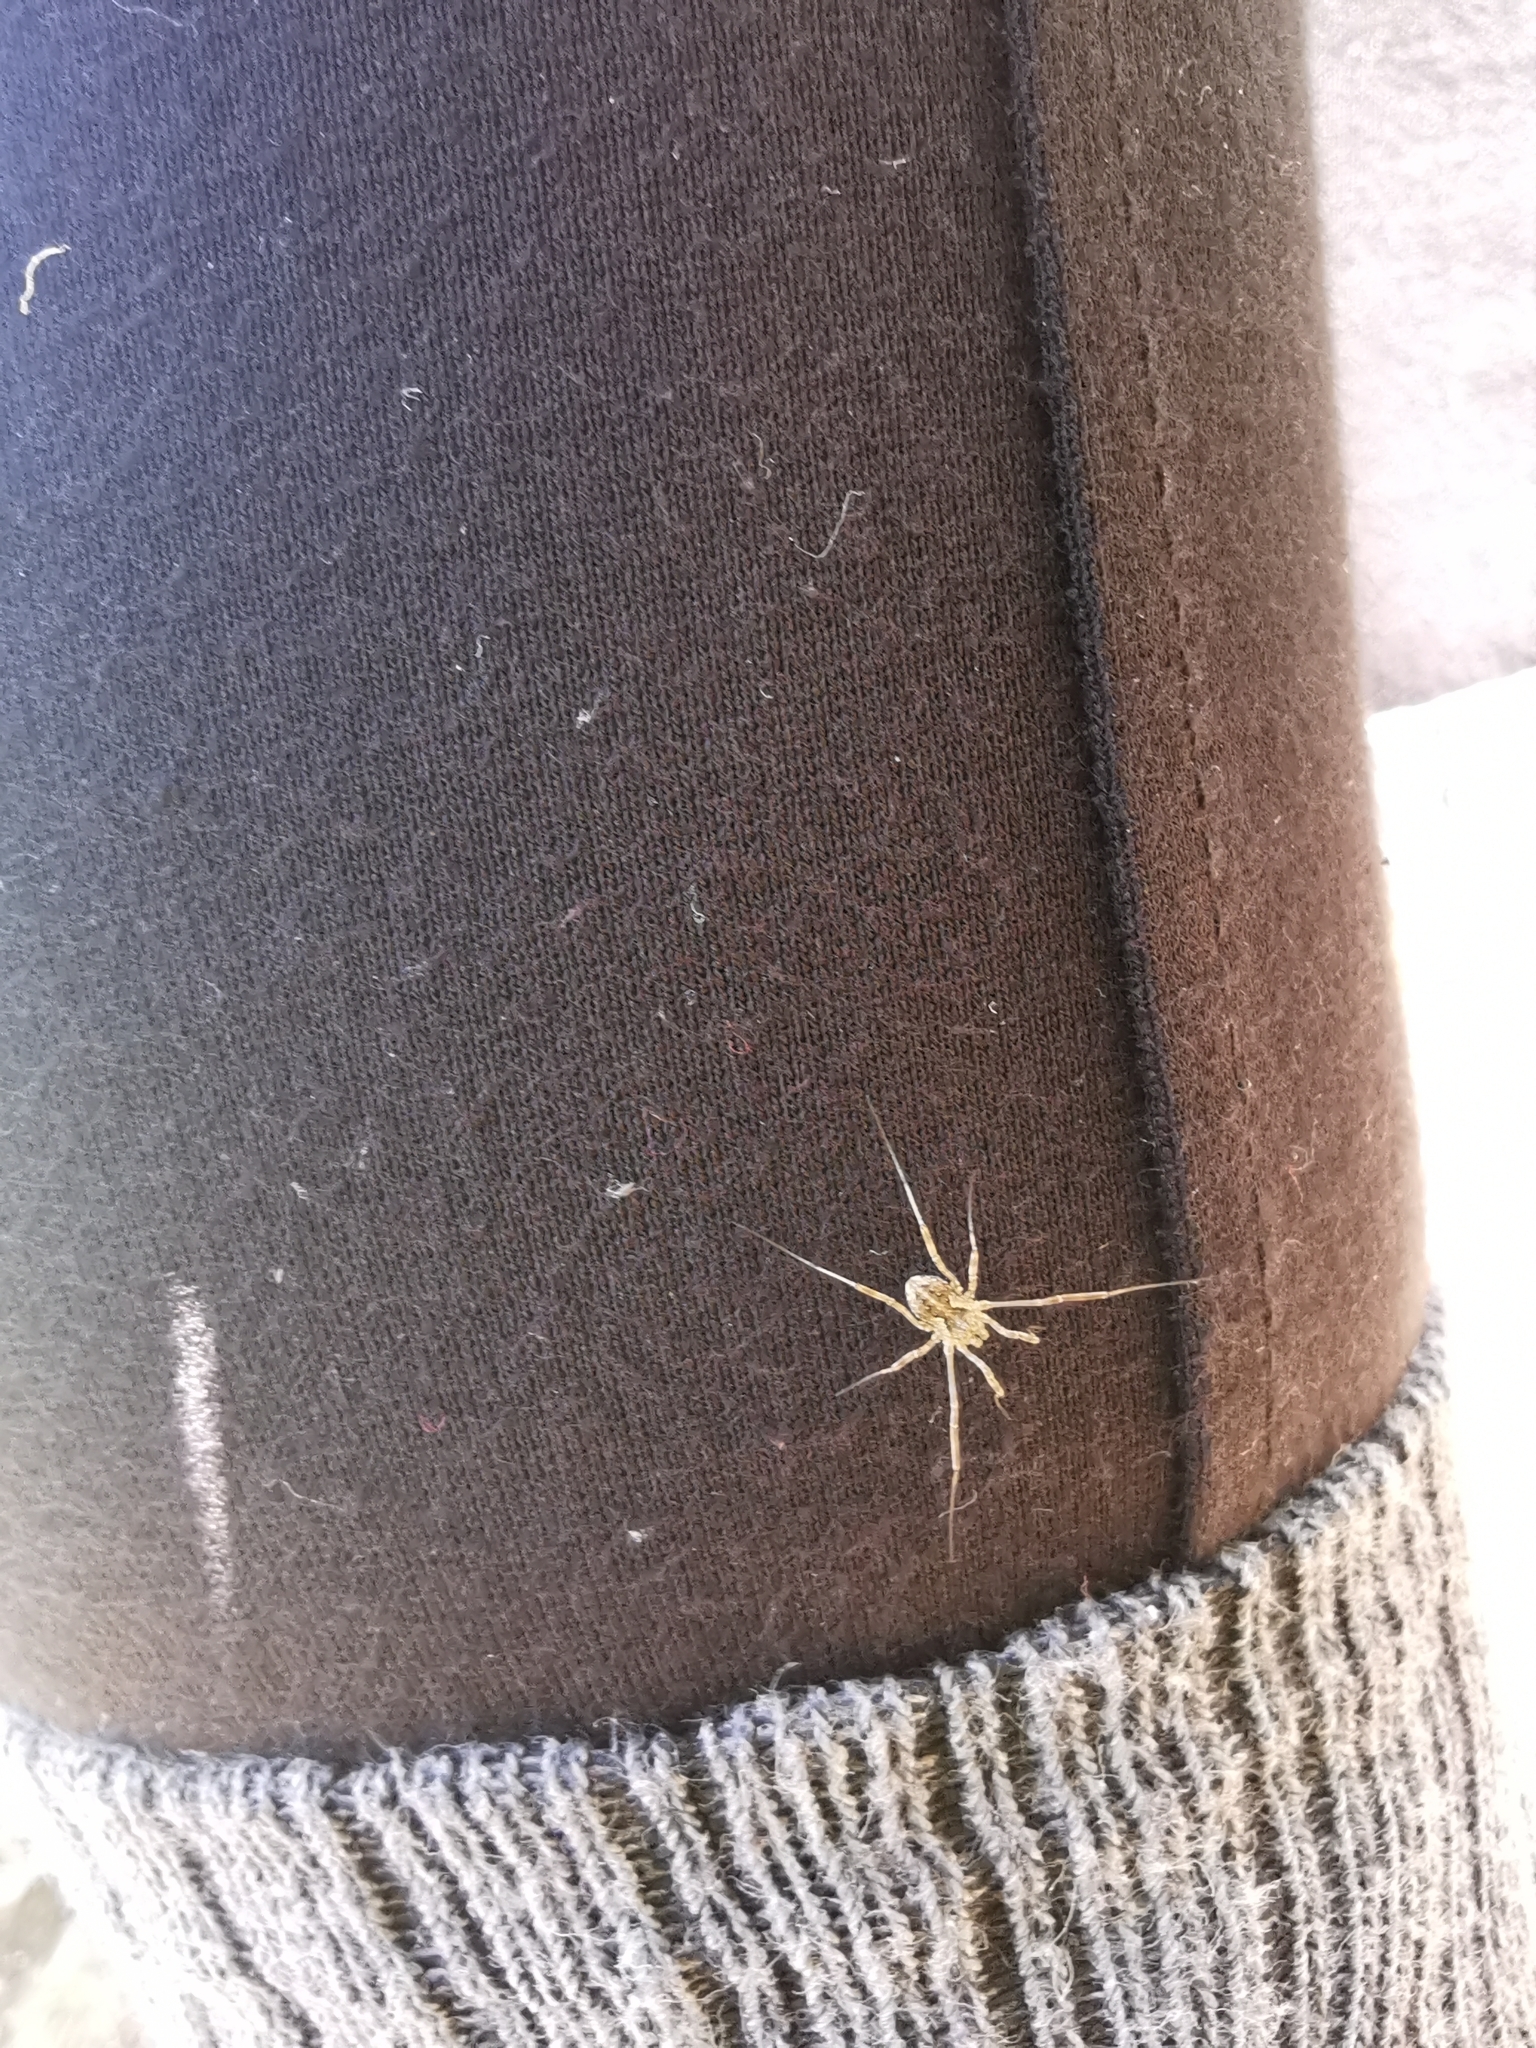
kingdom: Animalia
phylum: Arthropoda
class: Arachnida
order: Opiliones
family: Phalangiidae
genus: Mitopus
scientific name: Mitopus morio
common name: Saddleback harvestman
